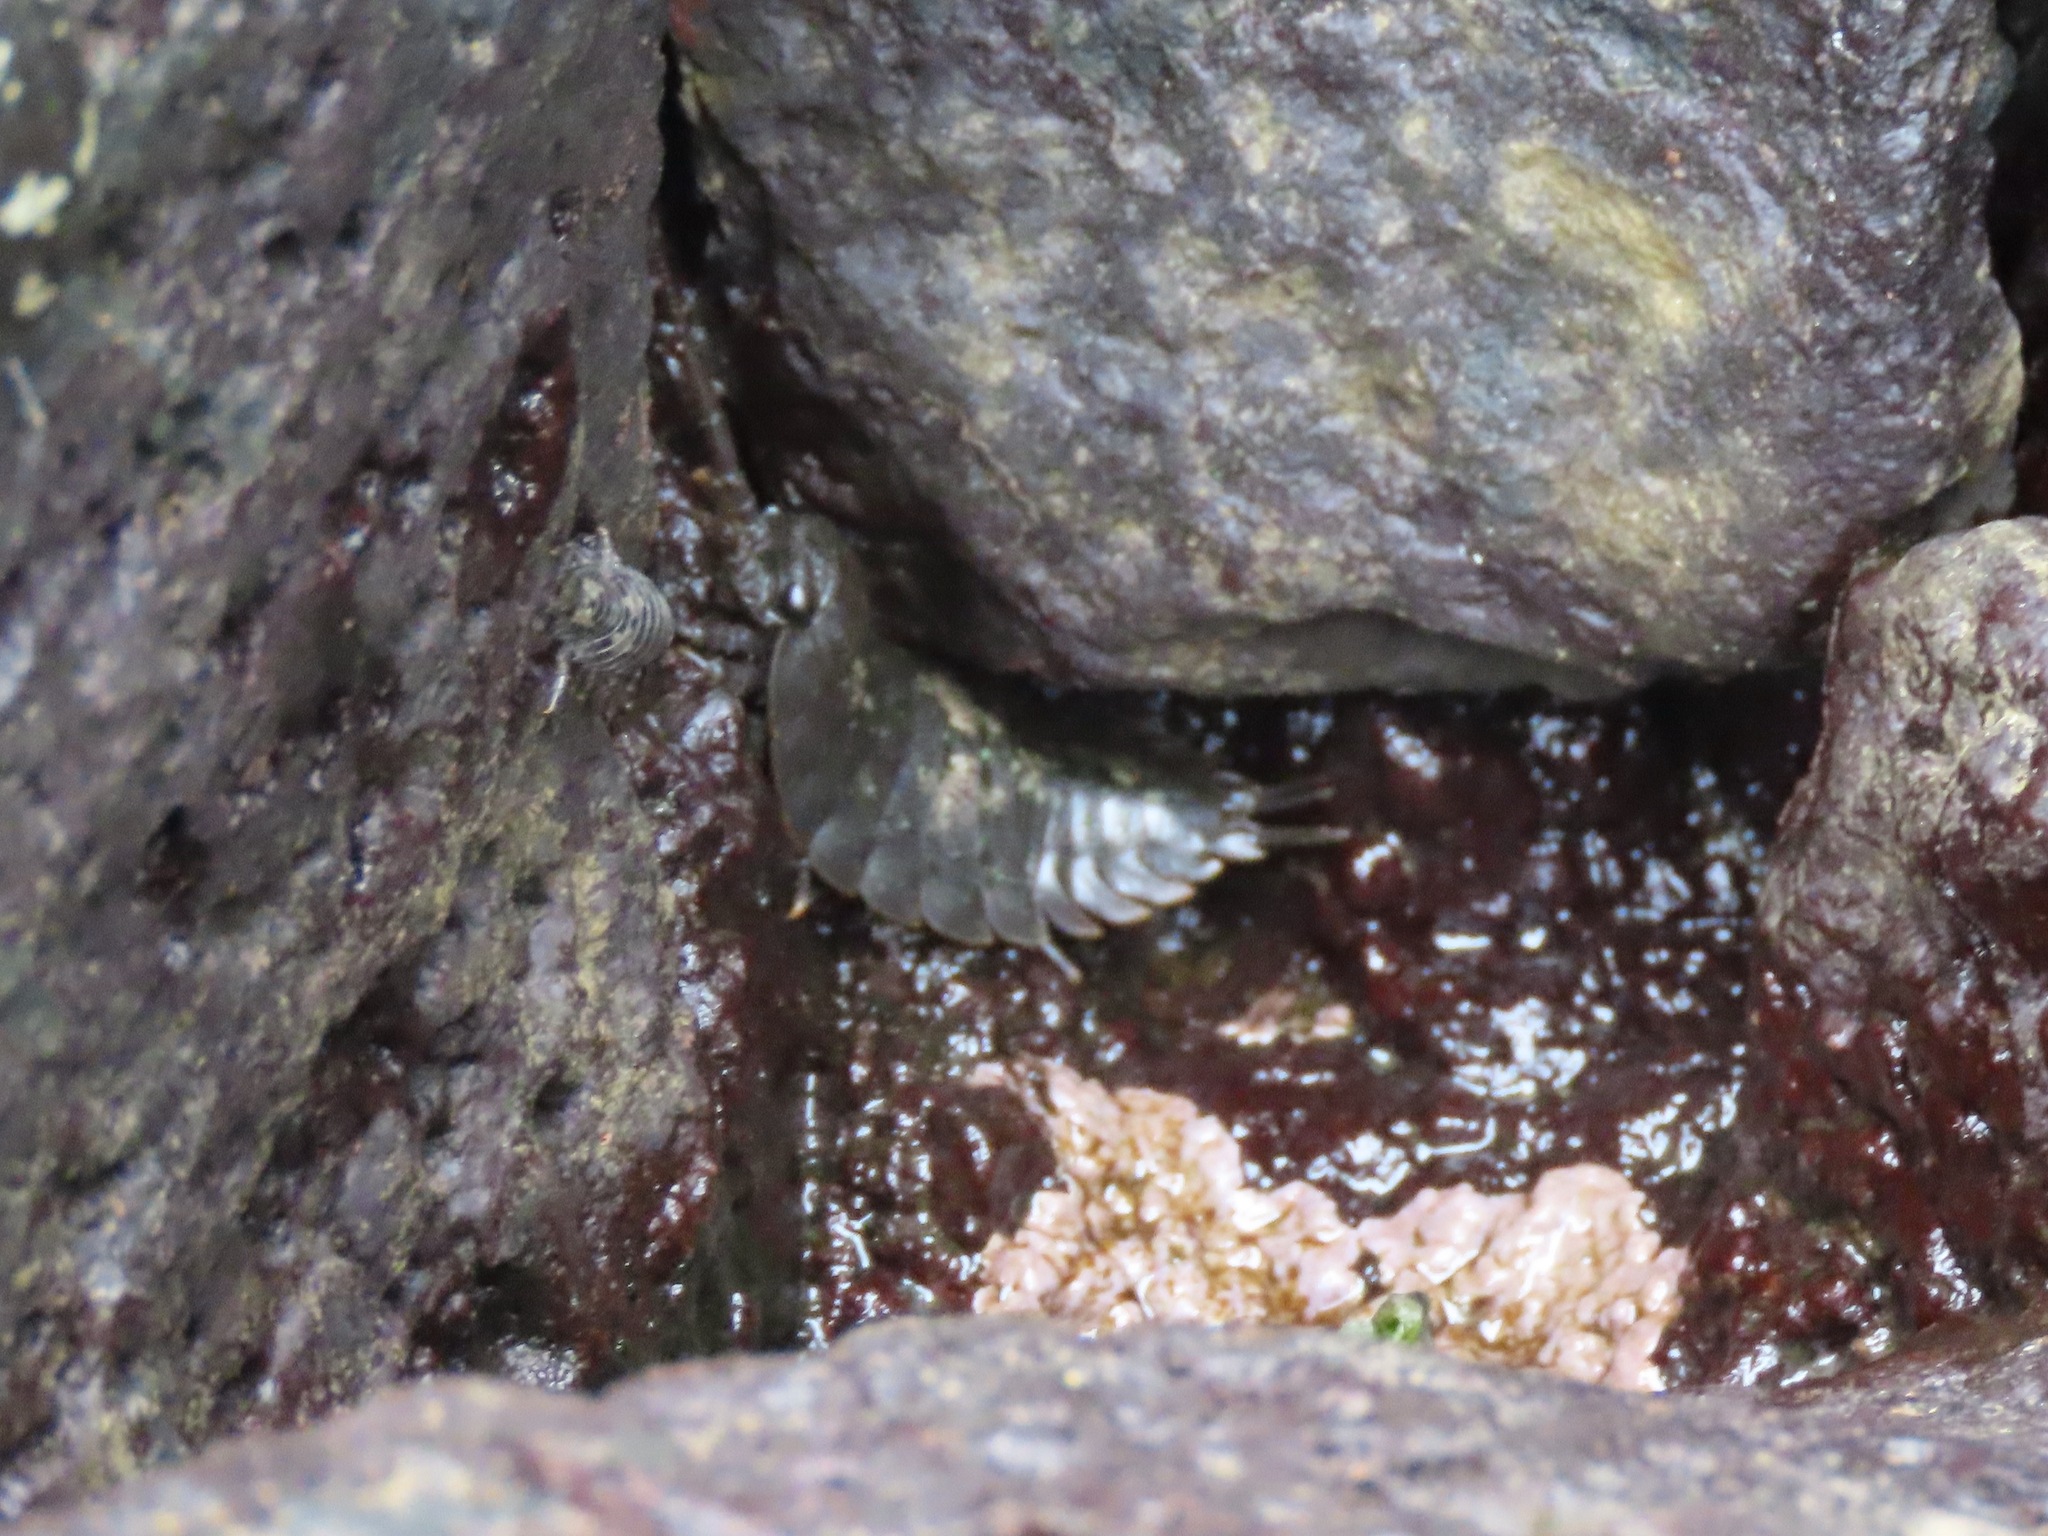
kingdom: Animalia
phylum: Arthropoda
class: Malacostraca
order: Isopoda
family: Ligiidae
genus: Ligia
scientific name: Ligia pallasii
